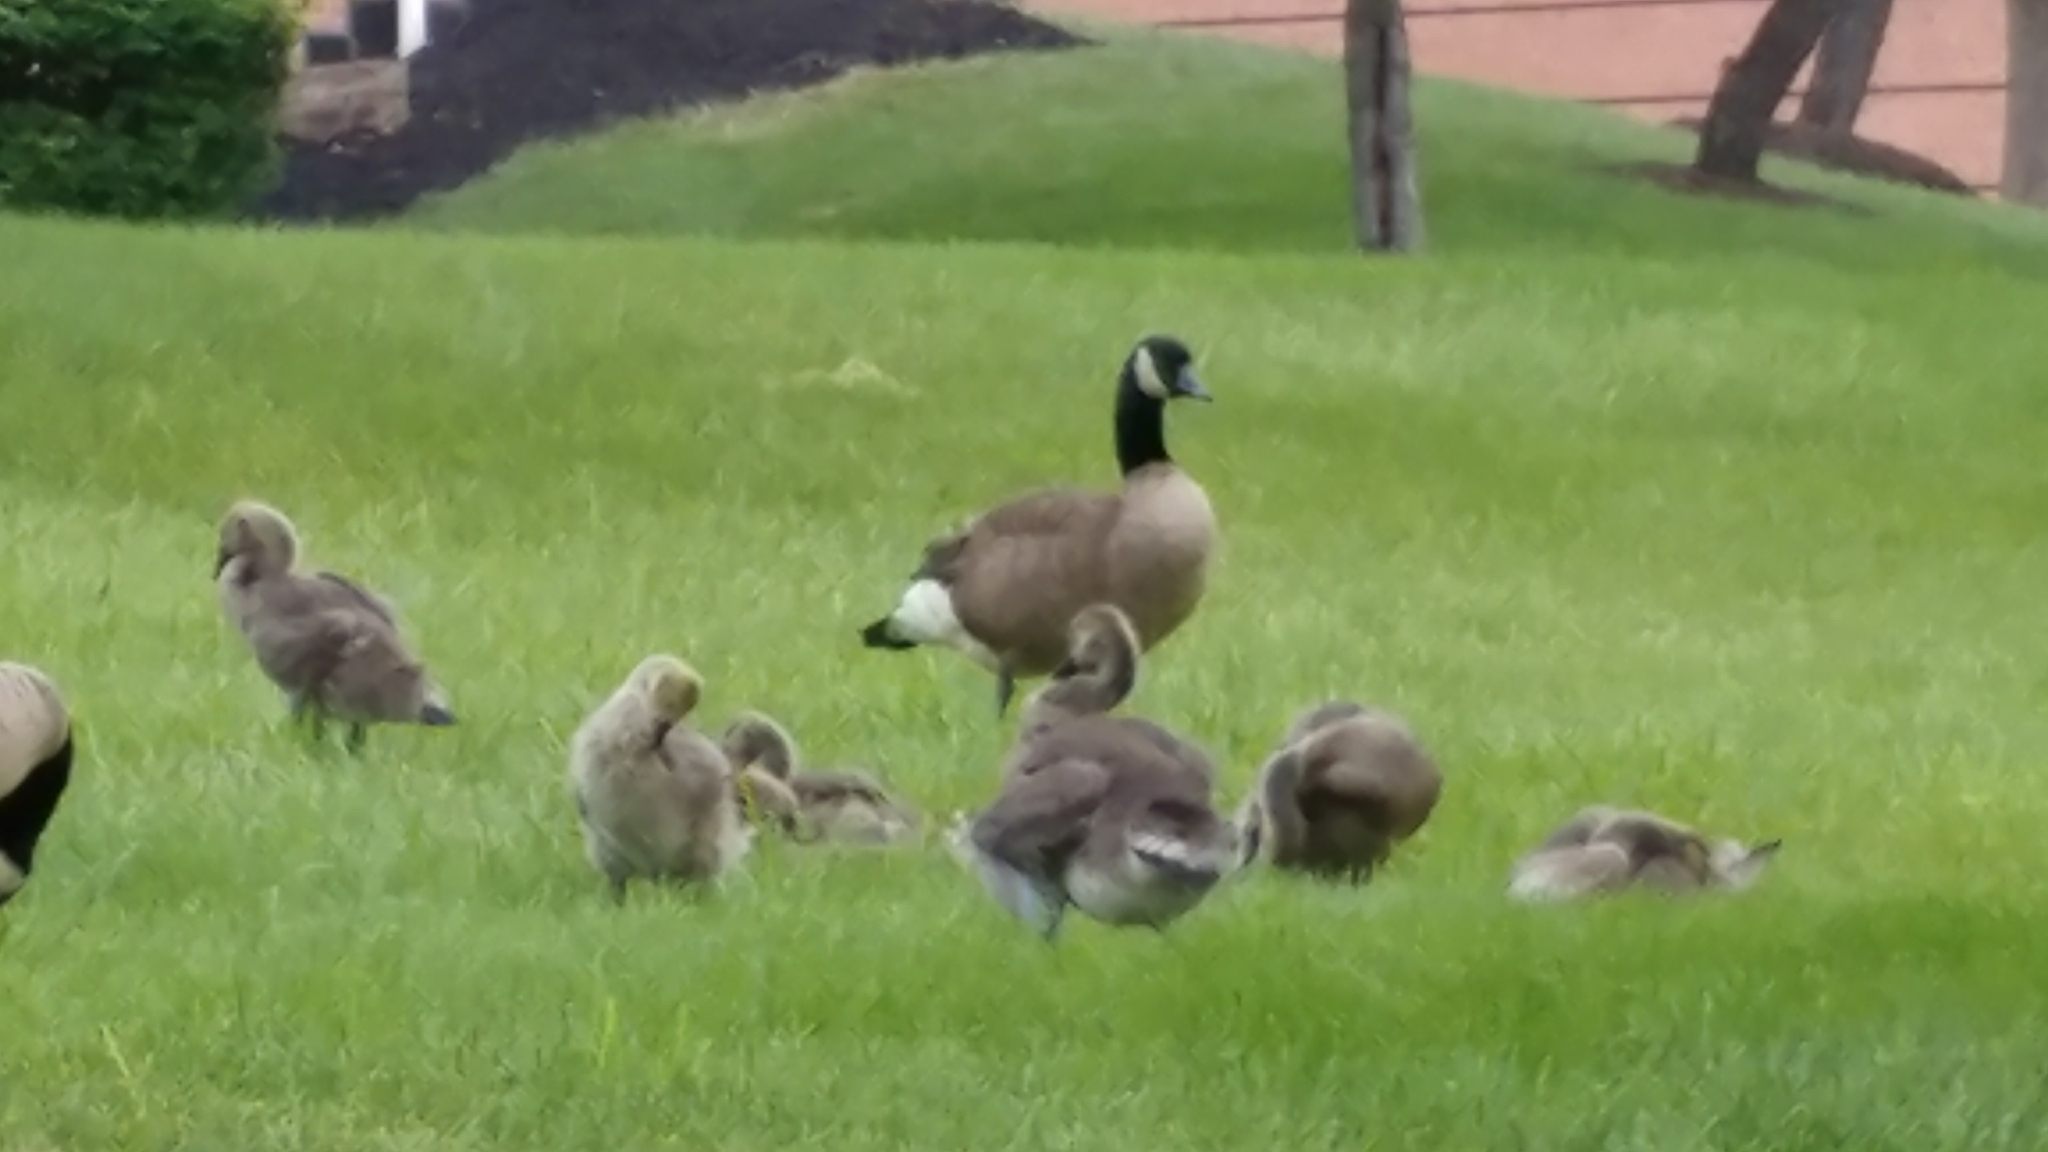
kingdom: Animalia
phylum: Chordata
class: Aves
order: Anseriformes
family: Anatidae
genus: Branta
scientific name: Branta canadensis
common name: Canada goose
